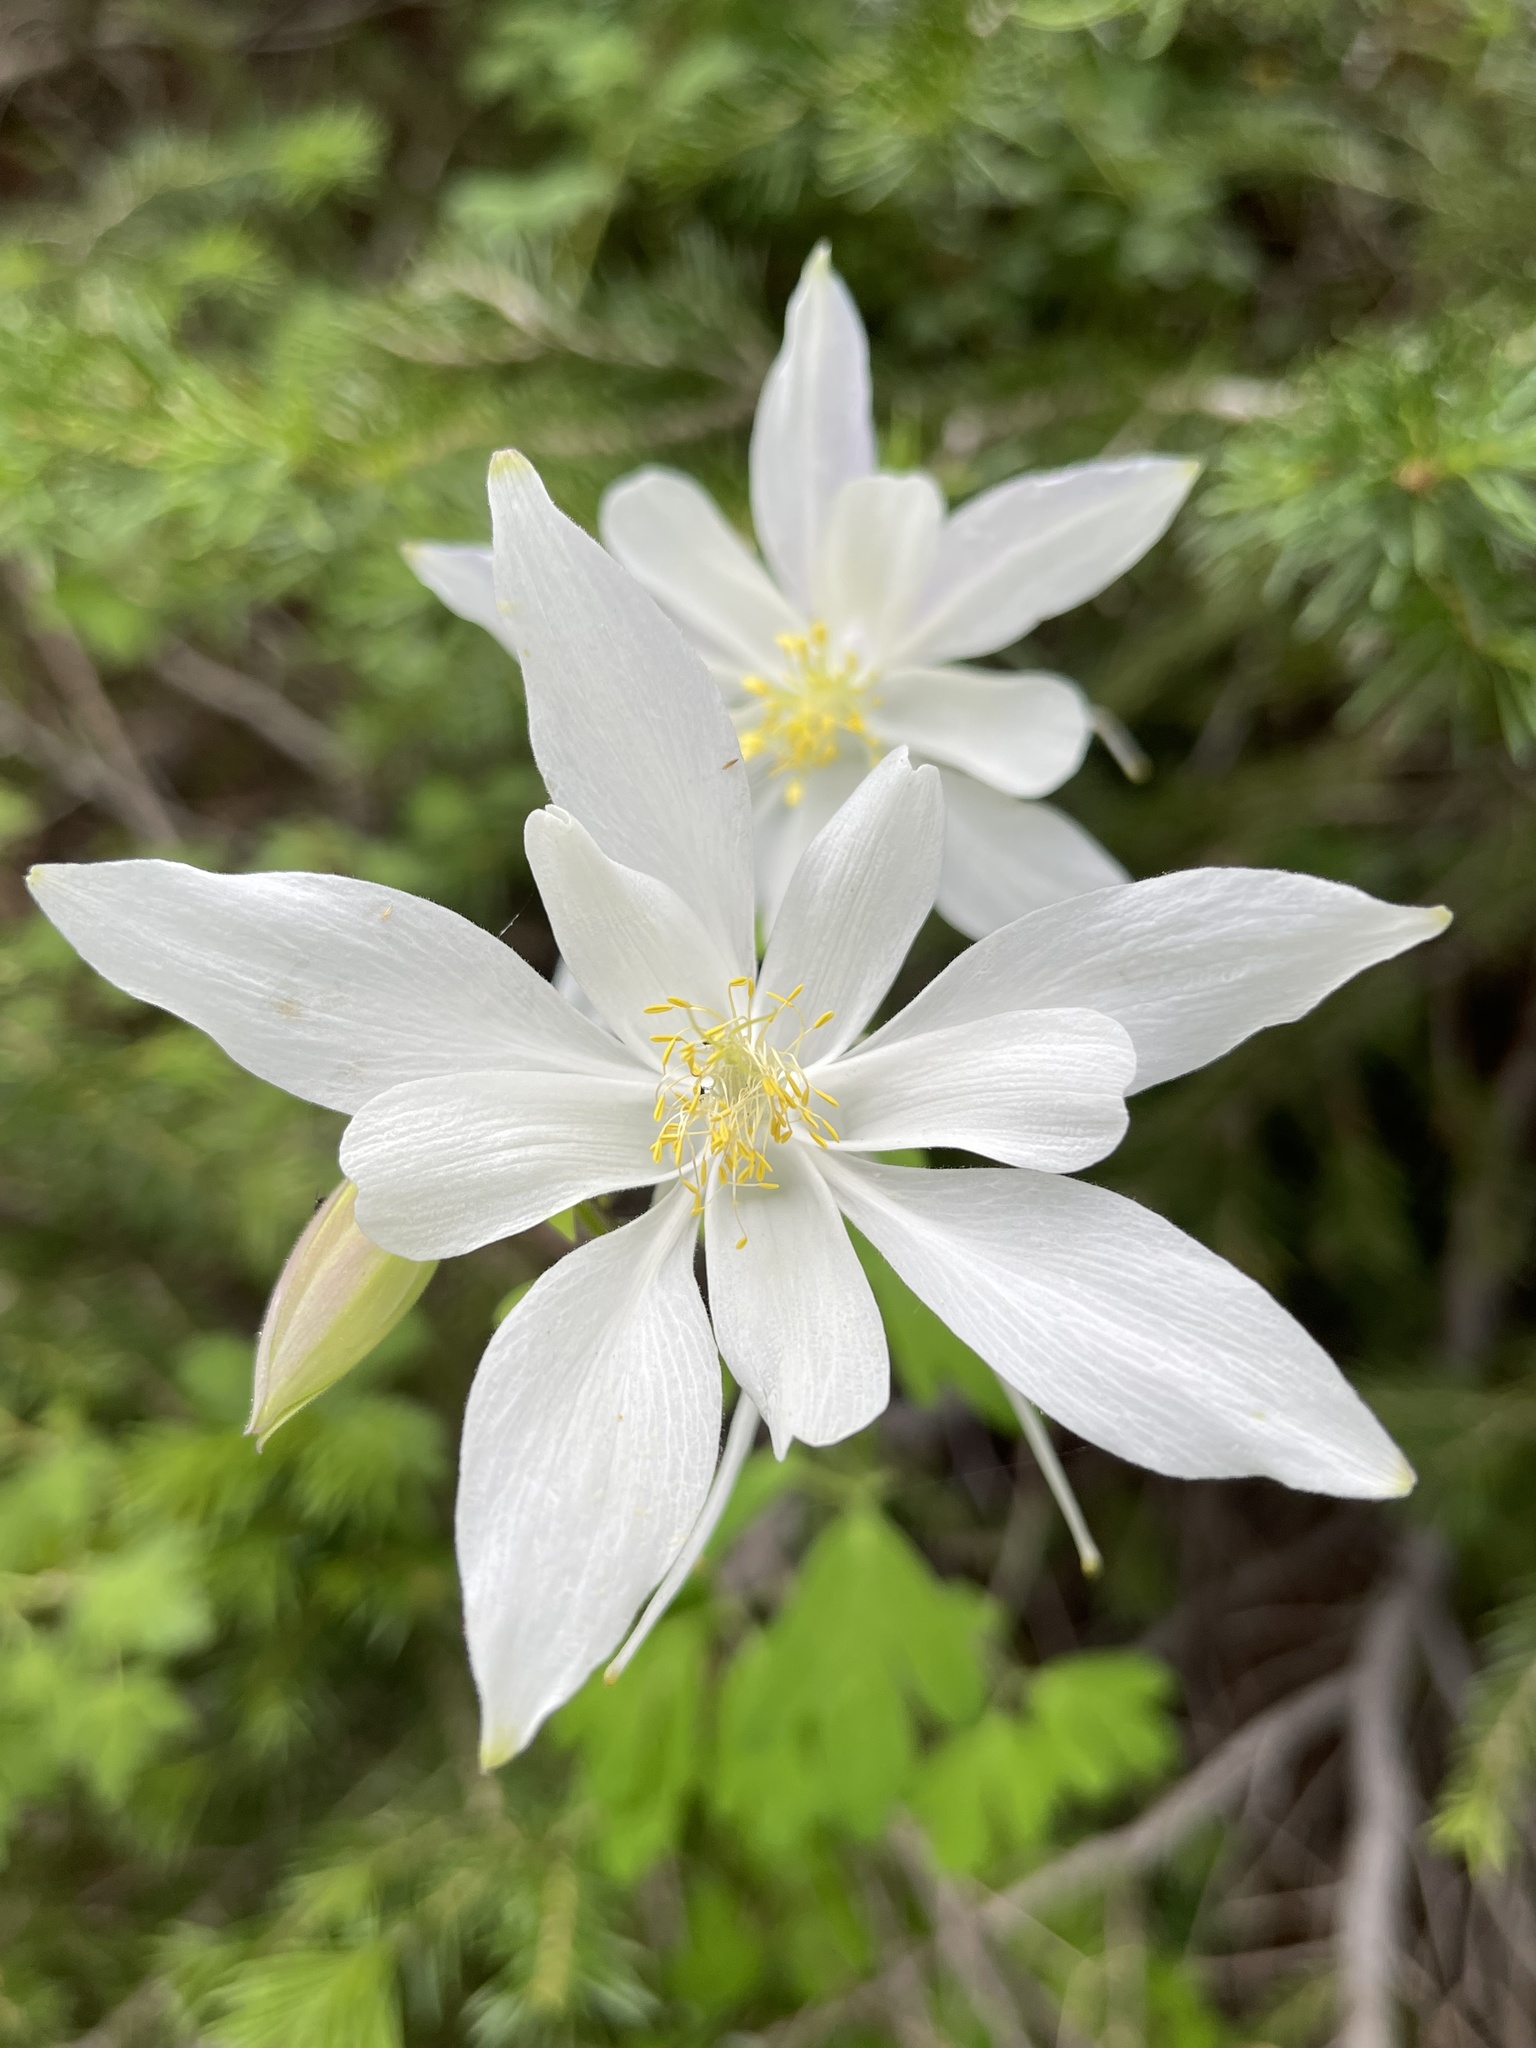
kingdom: Plantae
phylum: Tracheophyta
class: Magnoliopsida
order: Ranunculales
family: Ranunculaceae
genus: Aquilegia
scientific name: Aquilegia coerulea
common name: Rocky mountain columbine
